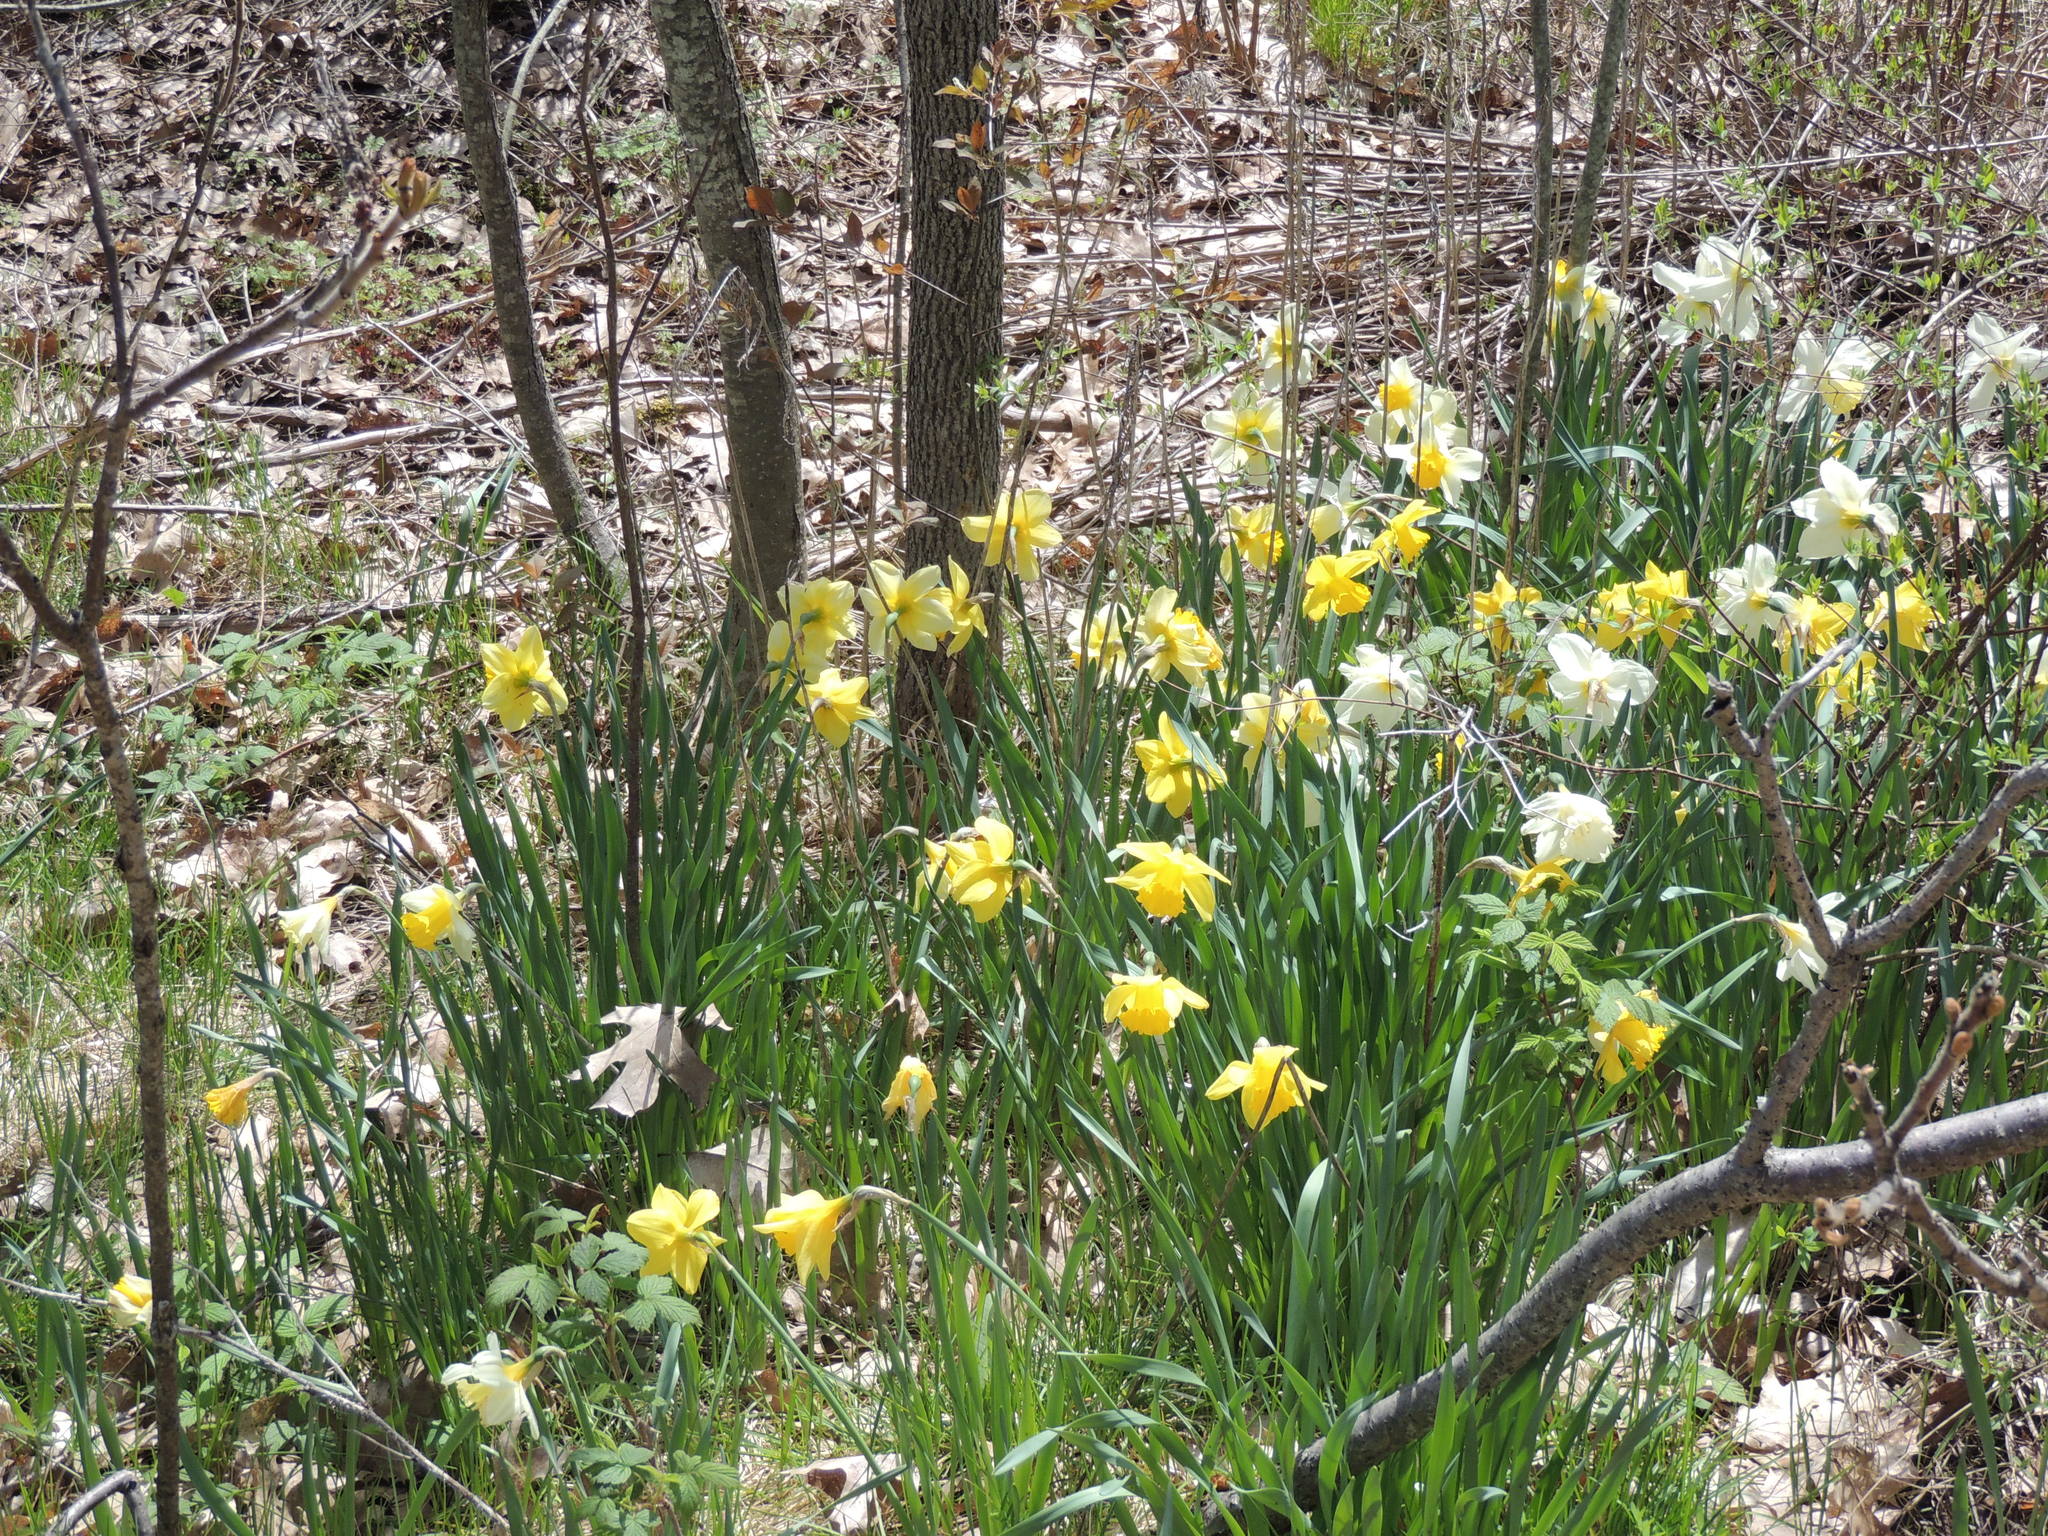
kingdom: Plantae
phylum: Tracheophyta
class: Liliopsida
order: Asparagales
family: Amaryllidaceae
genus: Narcissus
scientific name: Narcissus pseudonarcissus
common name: Daffodil
